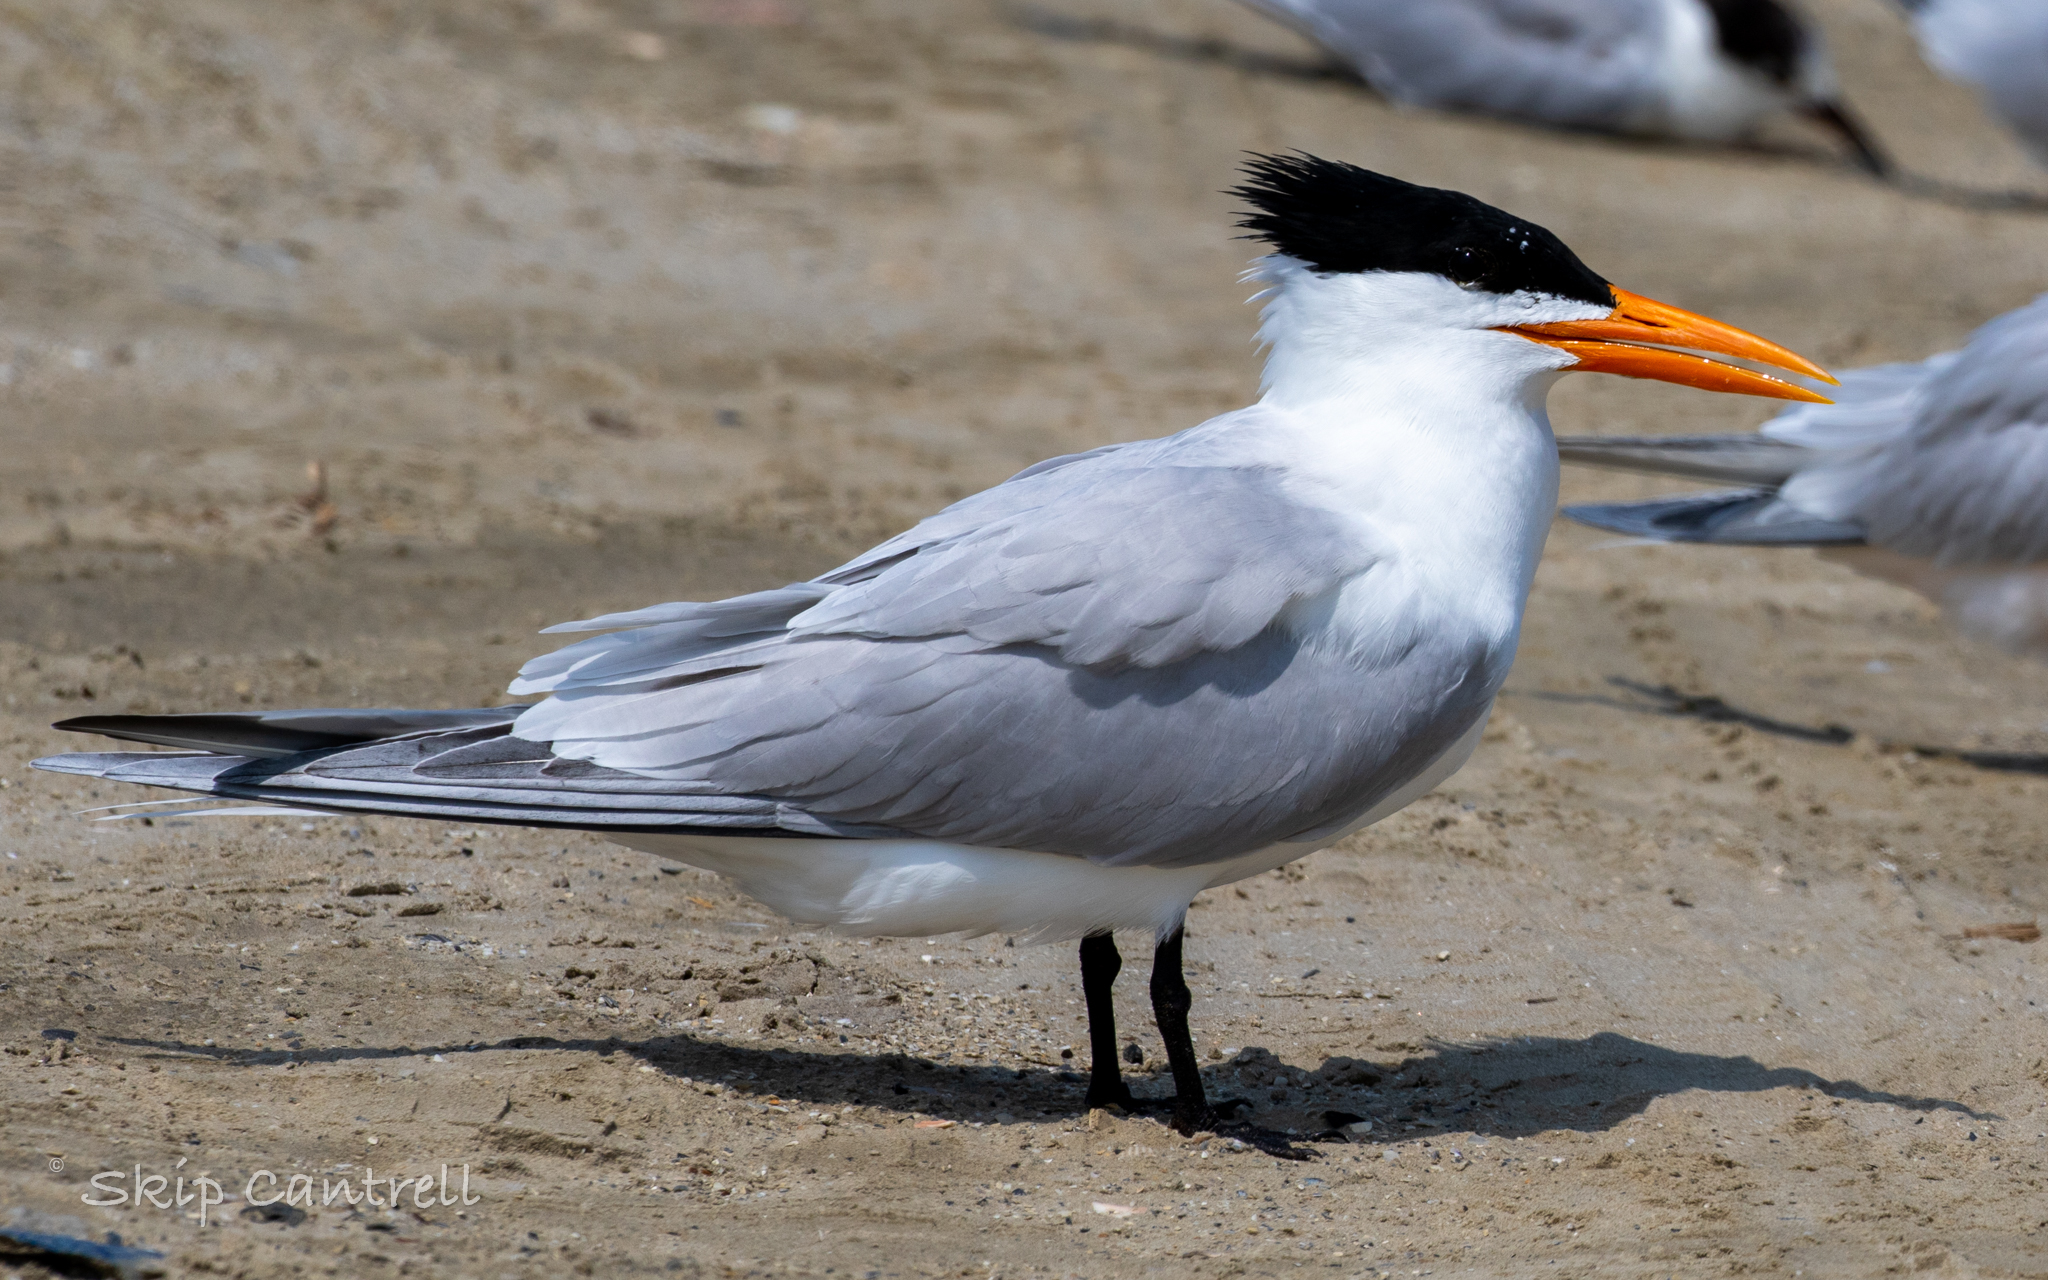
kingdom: Animalia
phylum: Chordata
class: Aves
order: Charadriiformes
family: Laridae
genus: Thalasseus
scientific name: Thalasseus maximus
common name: Royal tern
